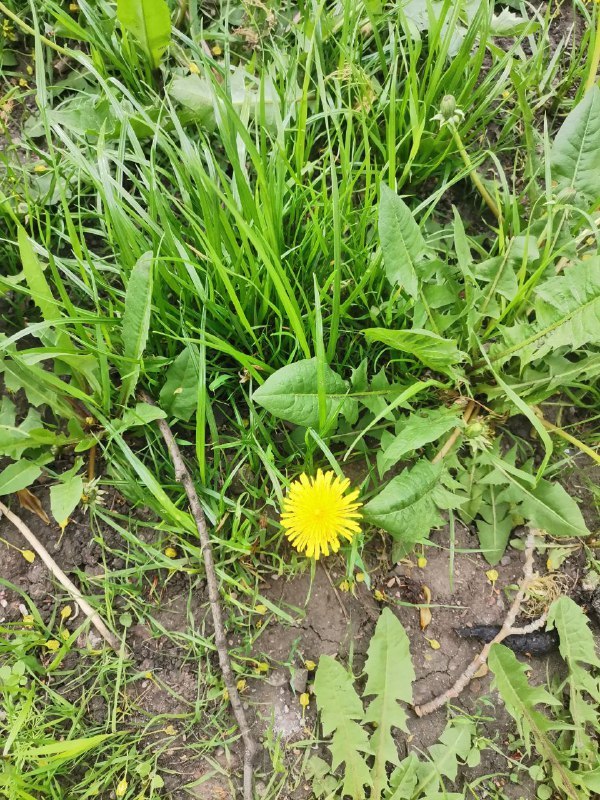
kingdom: Plantae
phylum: Tracheophyta
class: Magnoliopsida
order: Asterales
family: Asteraceae
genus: Taraxacum
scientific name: Taraxacum officinale
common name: Common dandelion
